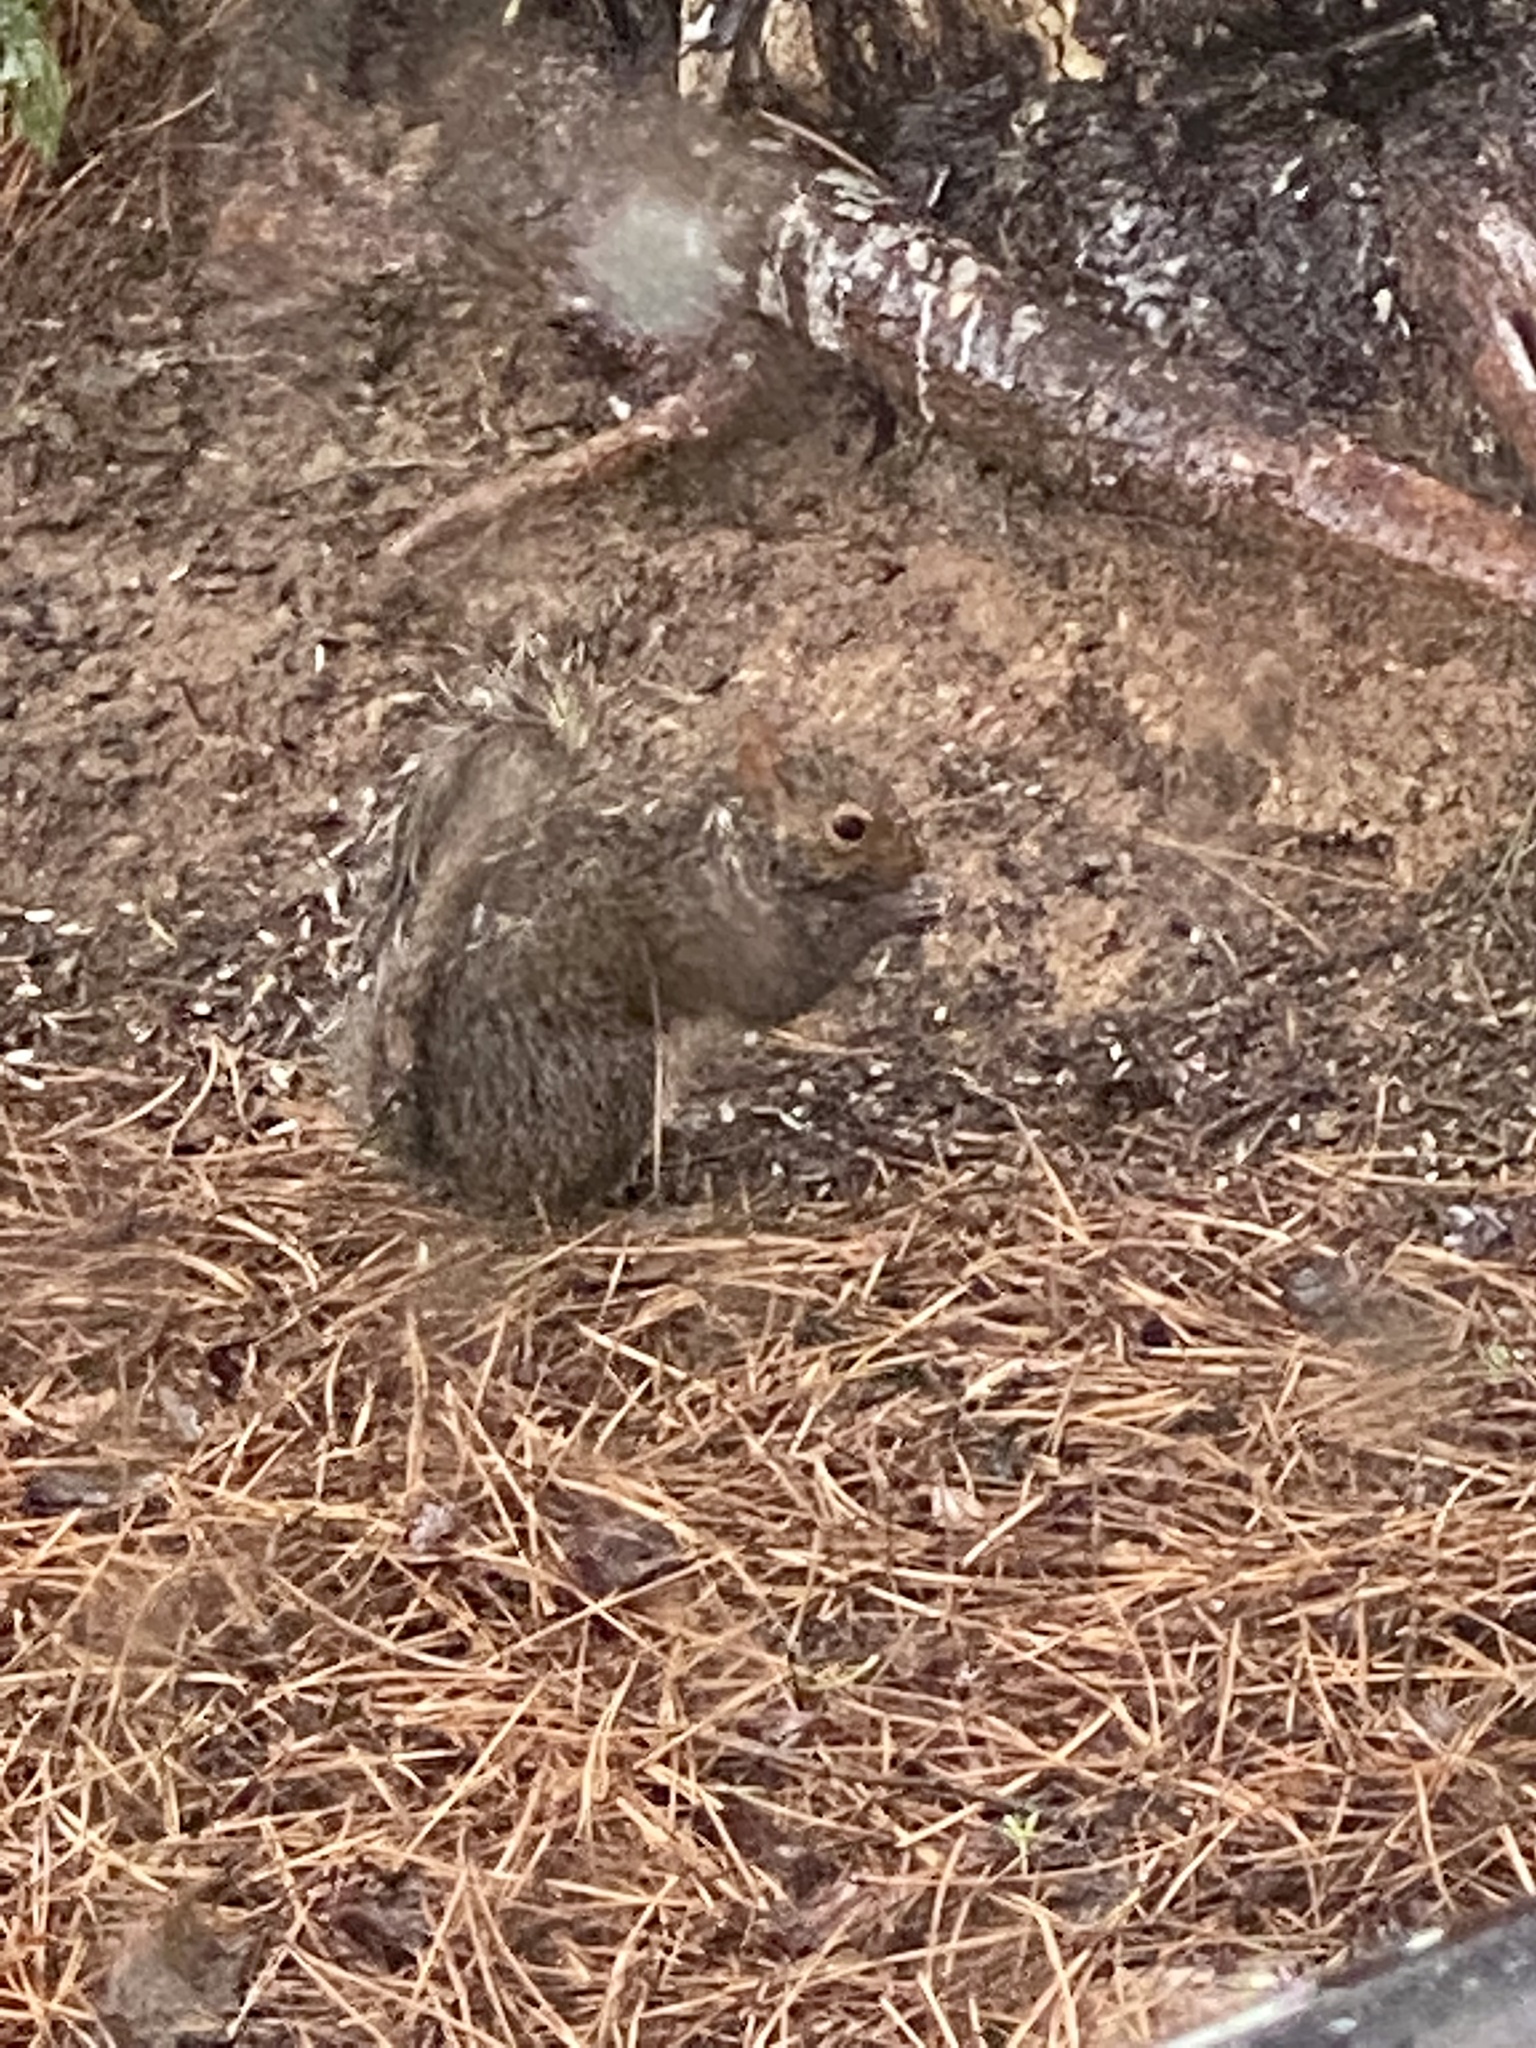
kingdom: Animalia
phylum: Chordata
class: Mammalia
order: Rodentia
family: Sciuridae
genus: Sciurus
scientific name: Sciurus carolinensis
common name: Eastern gray squirrel
